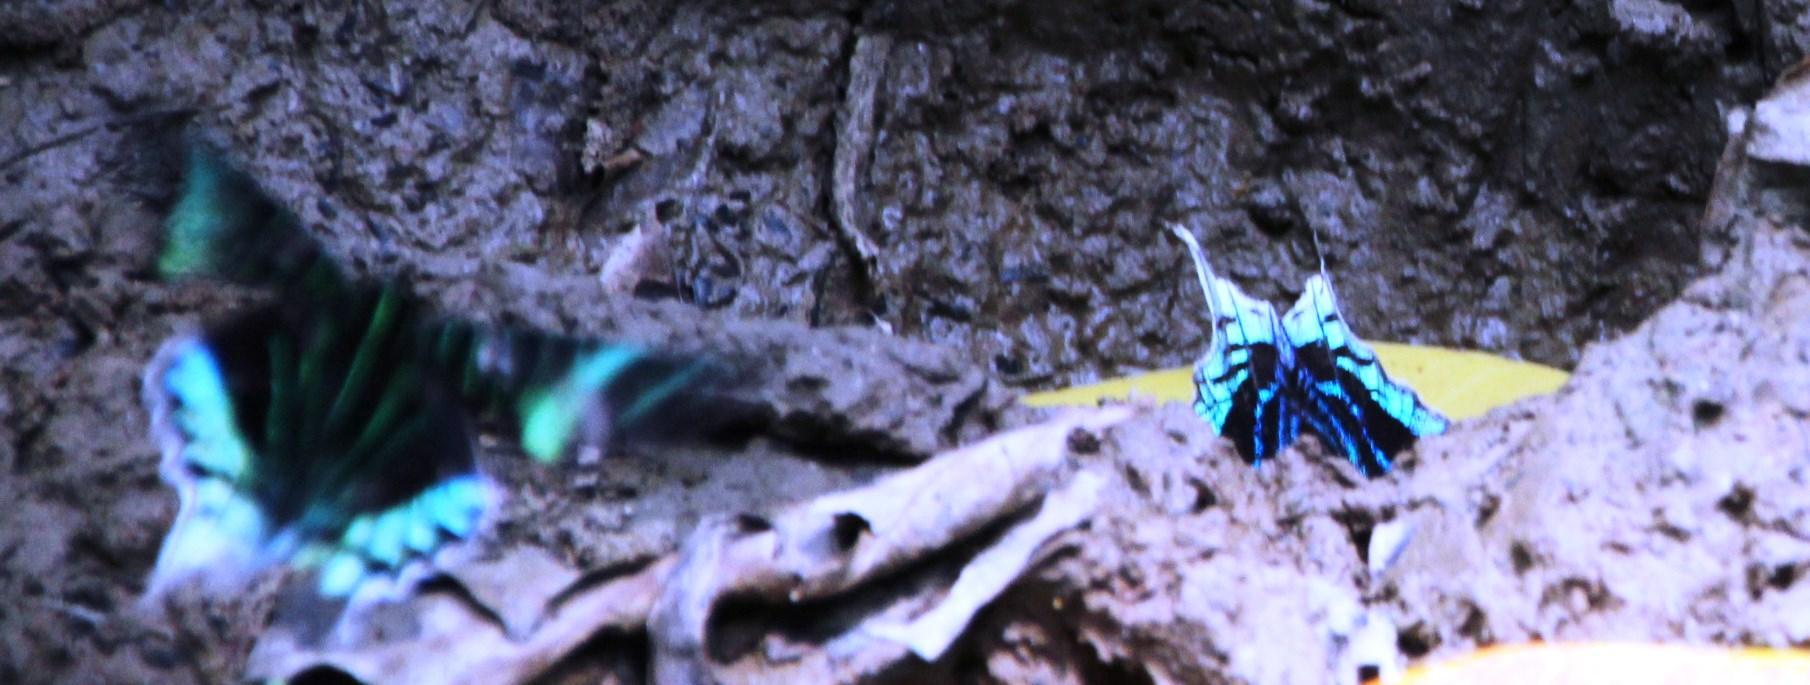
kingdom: Animalia
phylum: Arthropoda
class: Insecta
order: Lepidoptera
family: Uraniidae
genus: Urania
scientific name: Urania leilus
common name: Peacock moth
